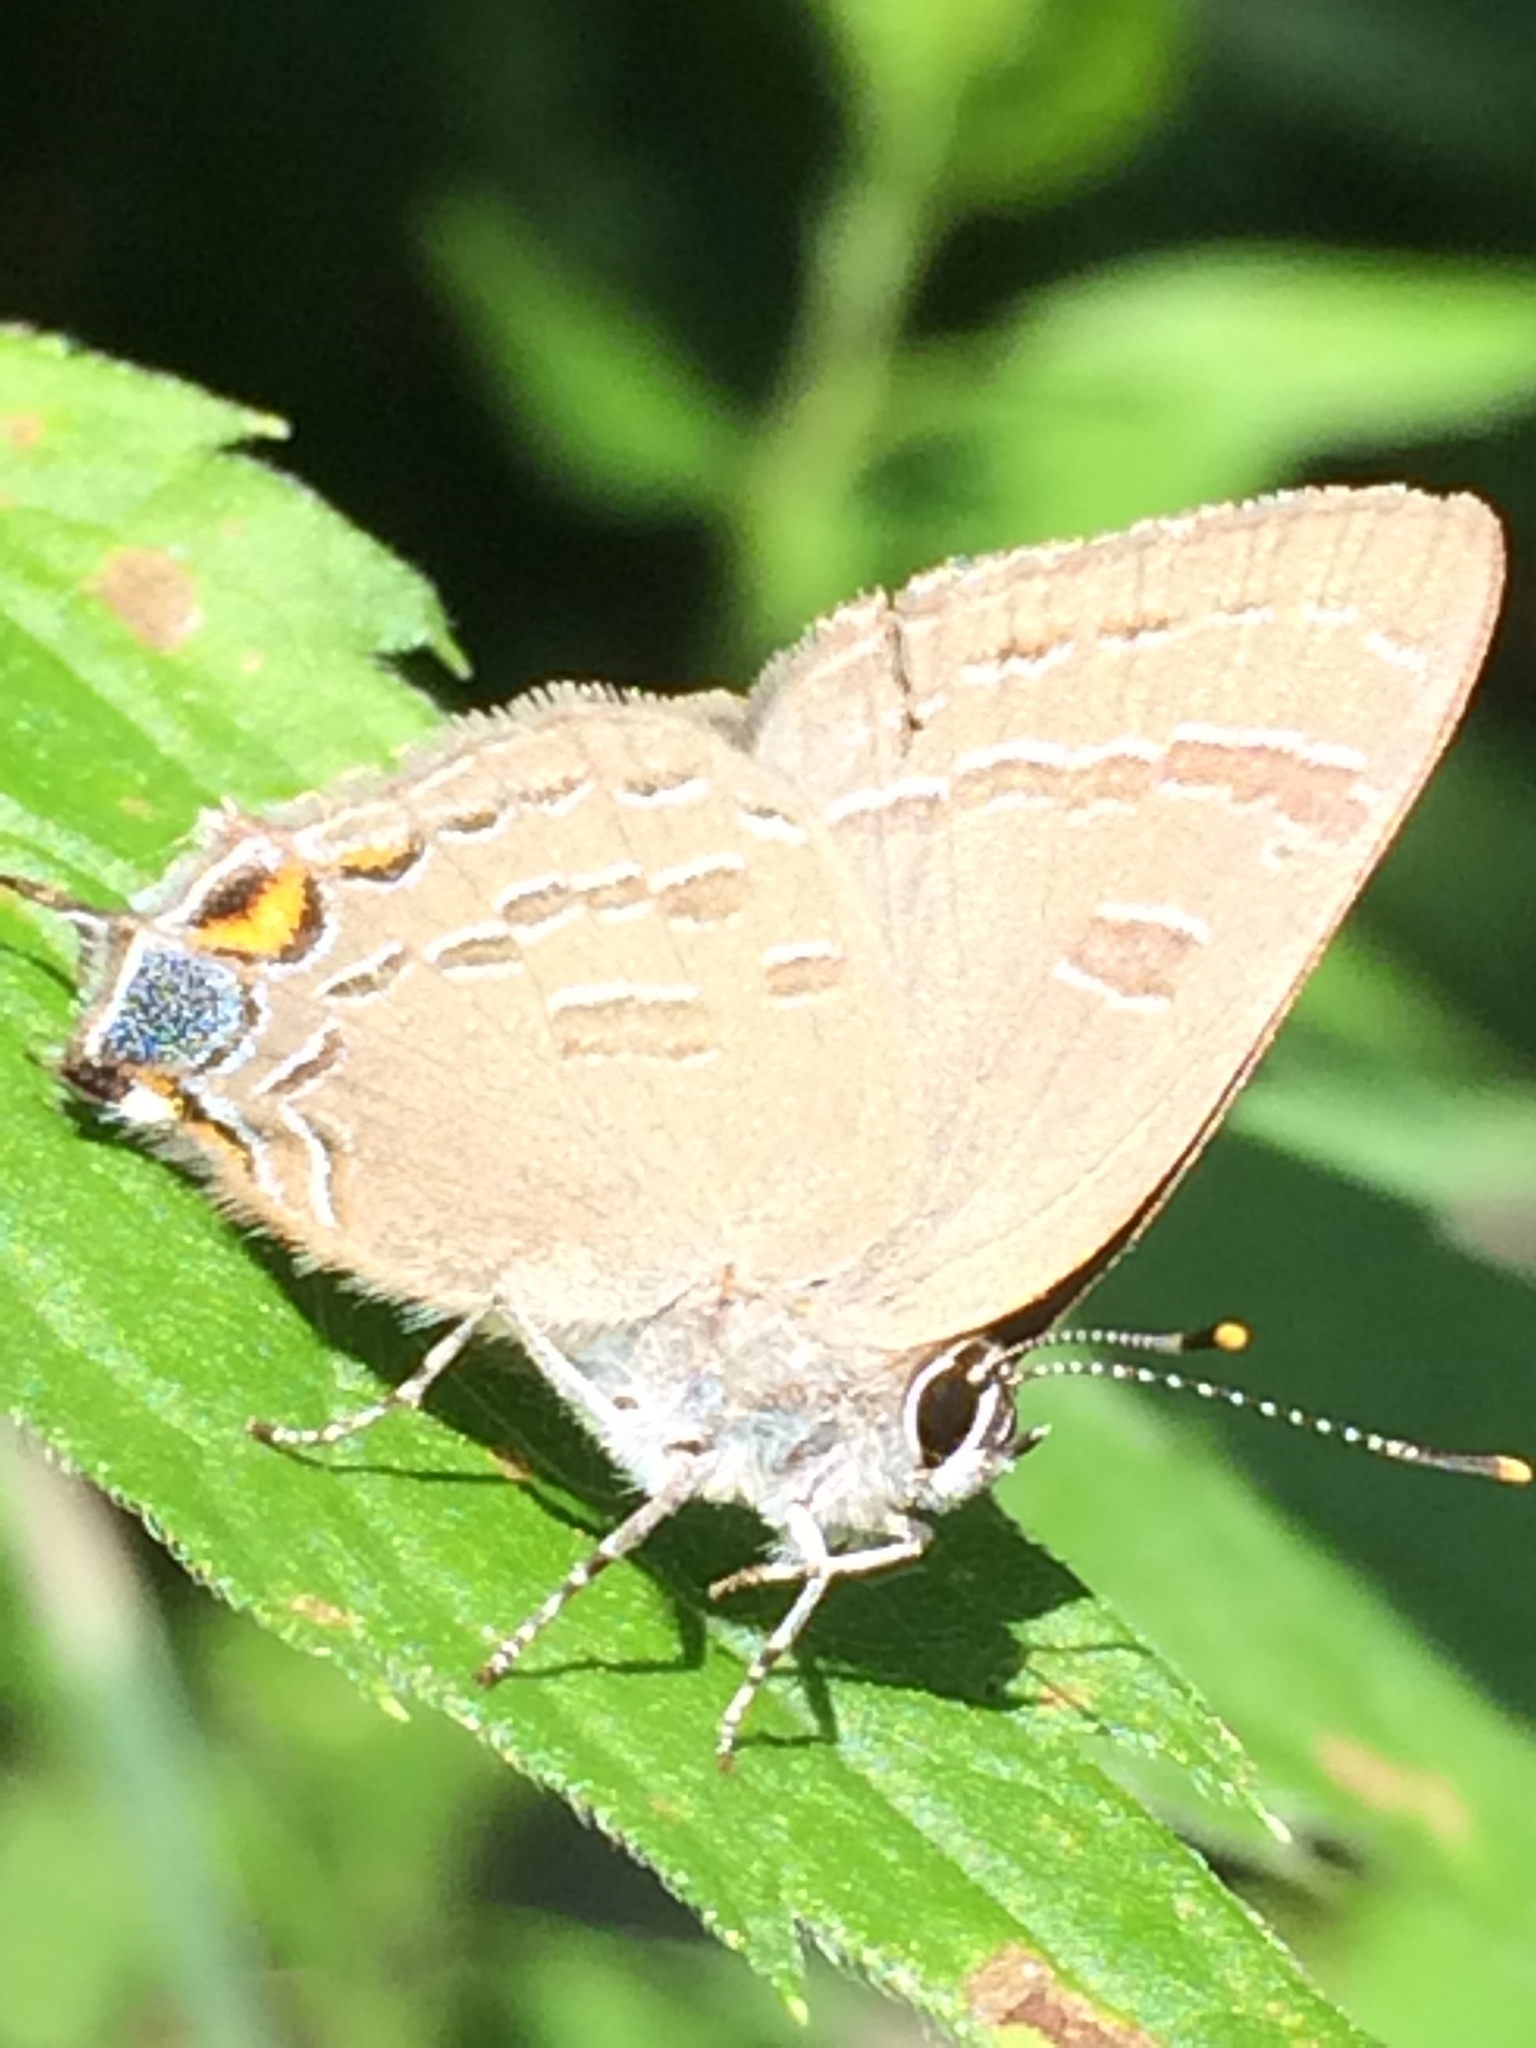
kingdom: Animalia
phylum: Arthropoda
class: Insecta
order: Lepidoptera
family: Lycaenidae
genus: Satyrium
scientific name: Satyrium calanus
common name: Banded hairstreak
